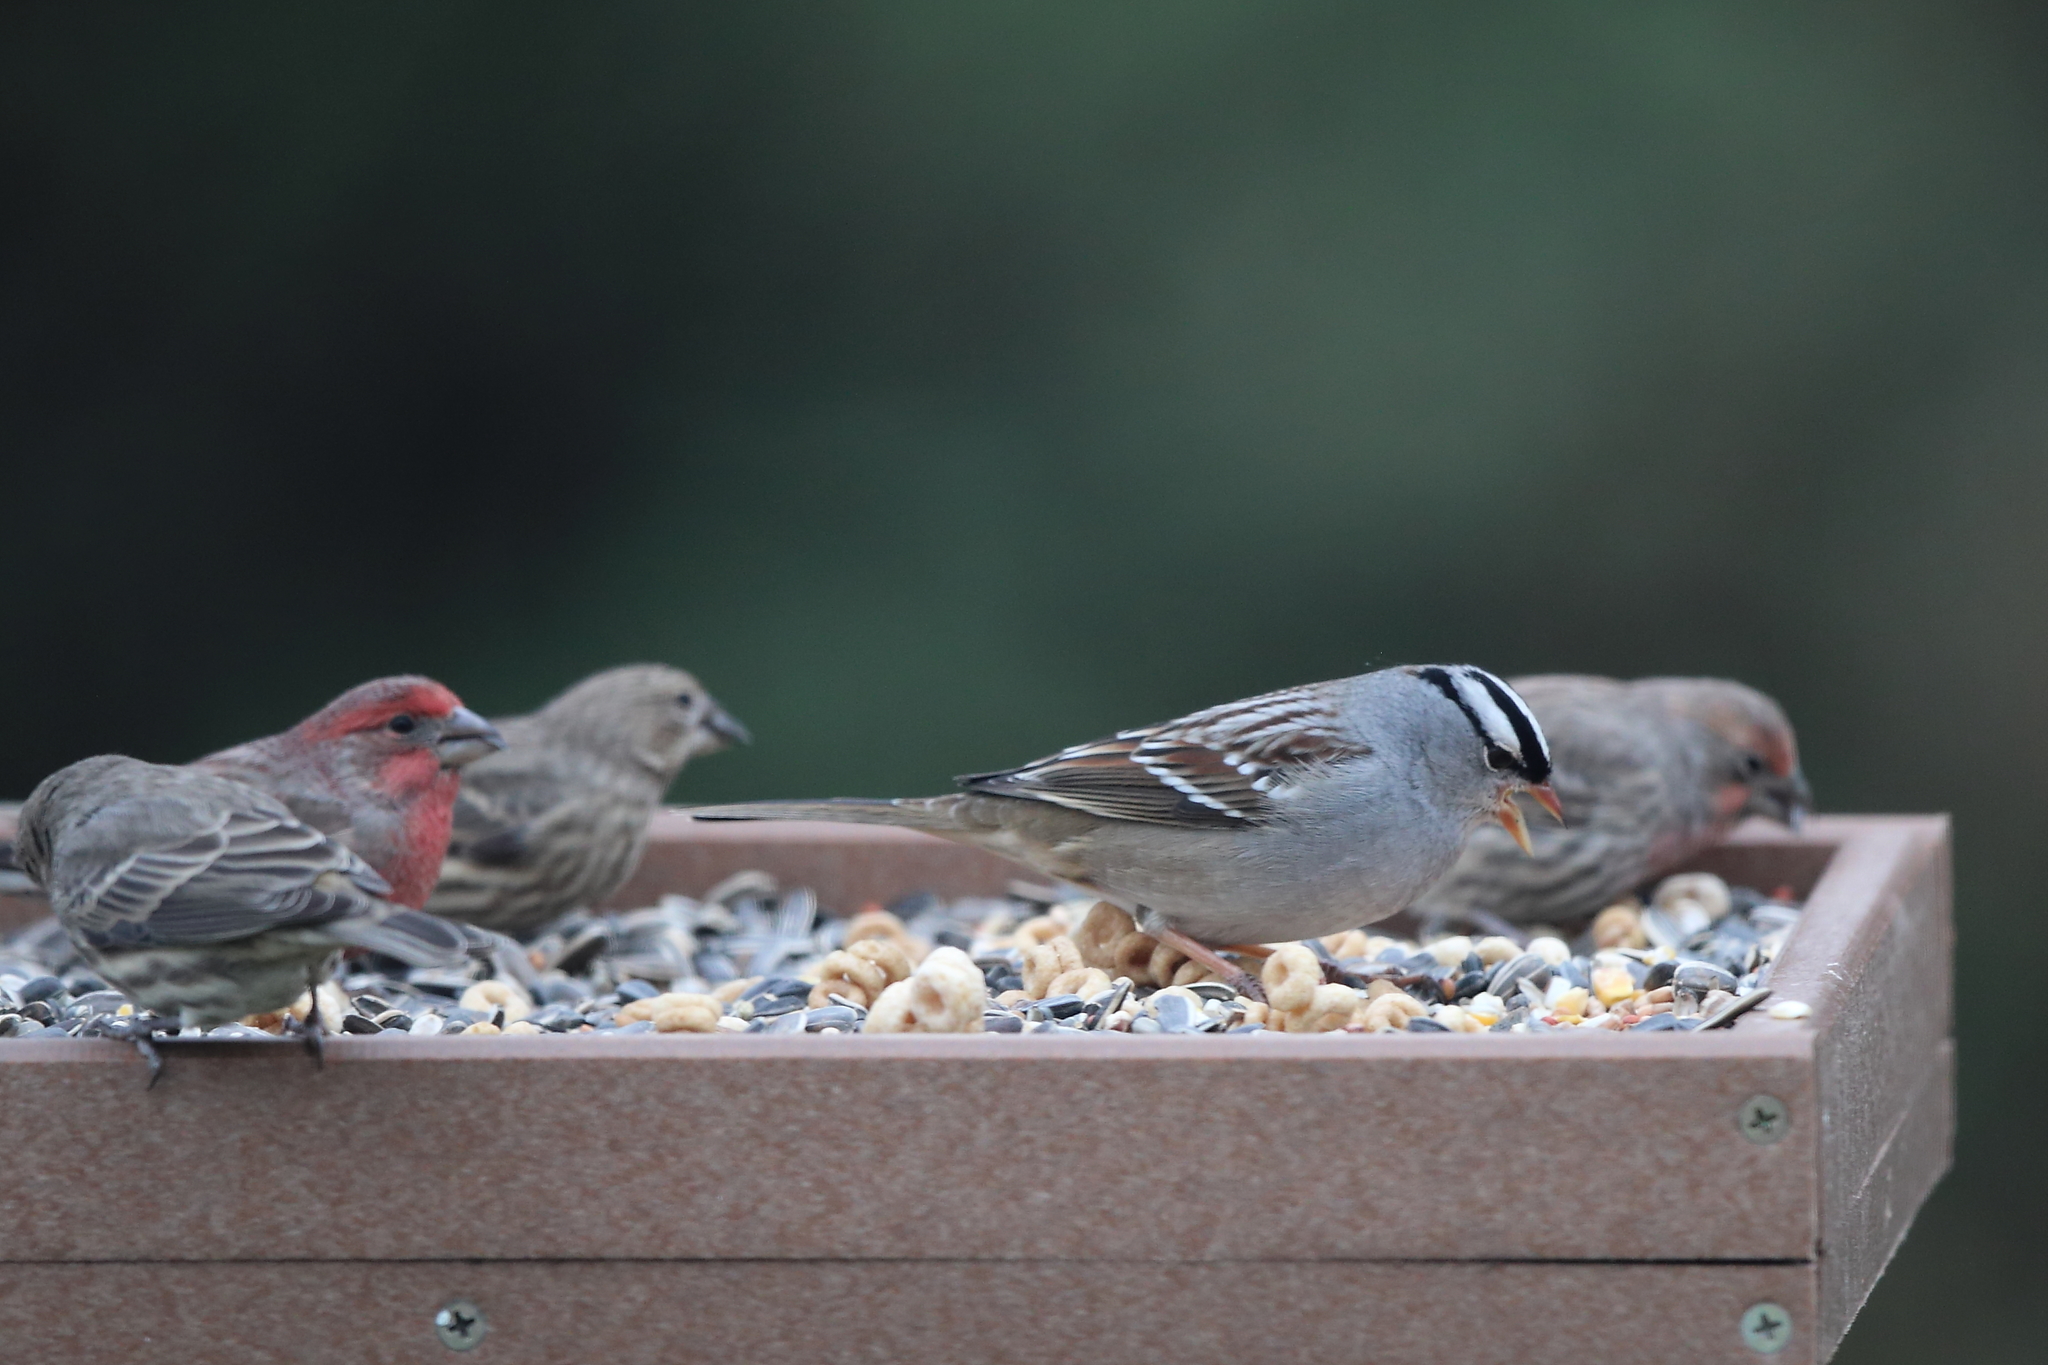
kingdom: Animalia
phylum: Chordata
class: Aves
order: Passeriformes
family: Passerellidae
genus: Zonotrichia
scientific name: Zonotrichia leucophrys
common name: White-crowned sparrow
